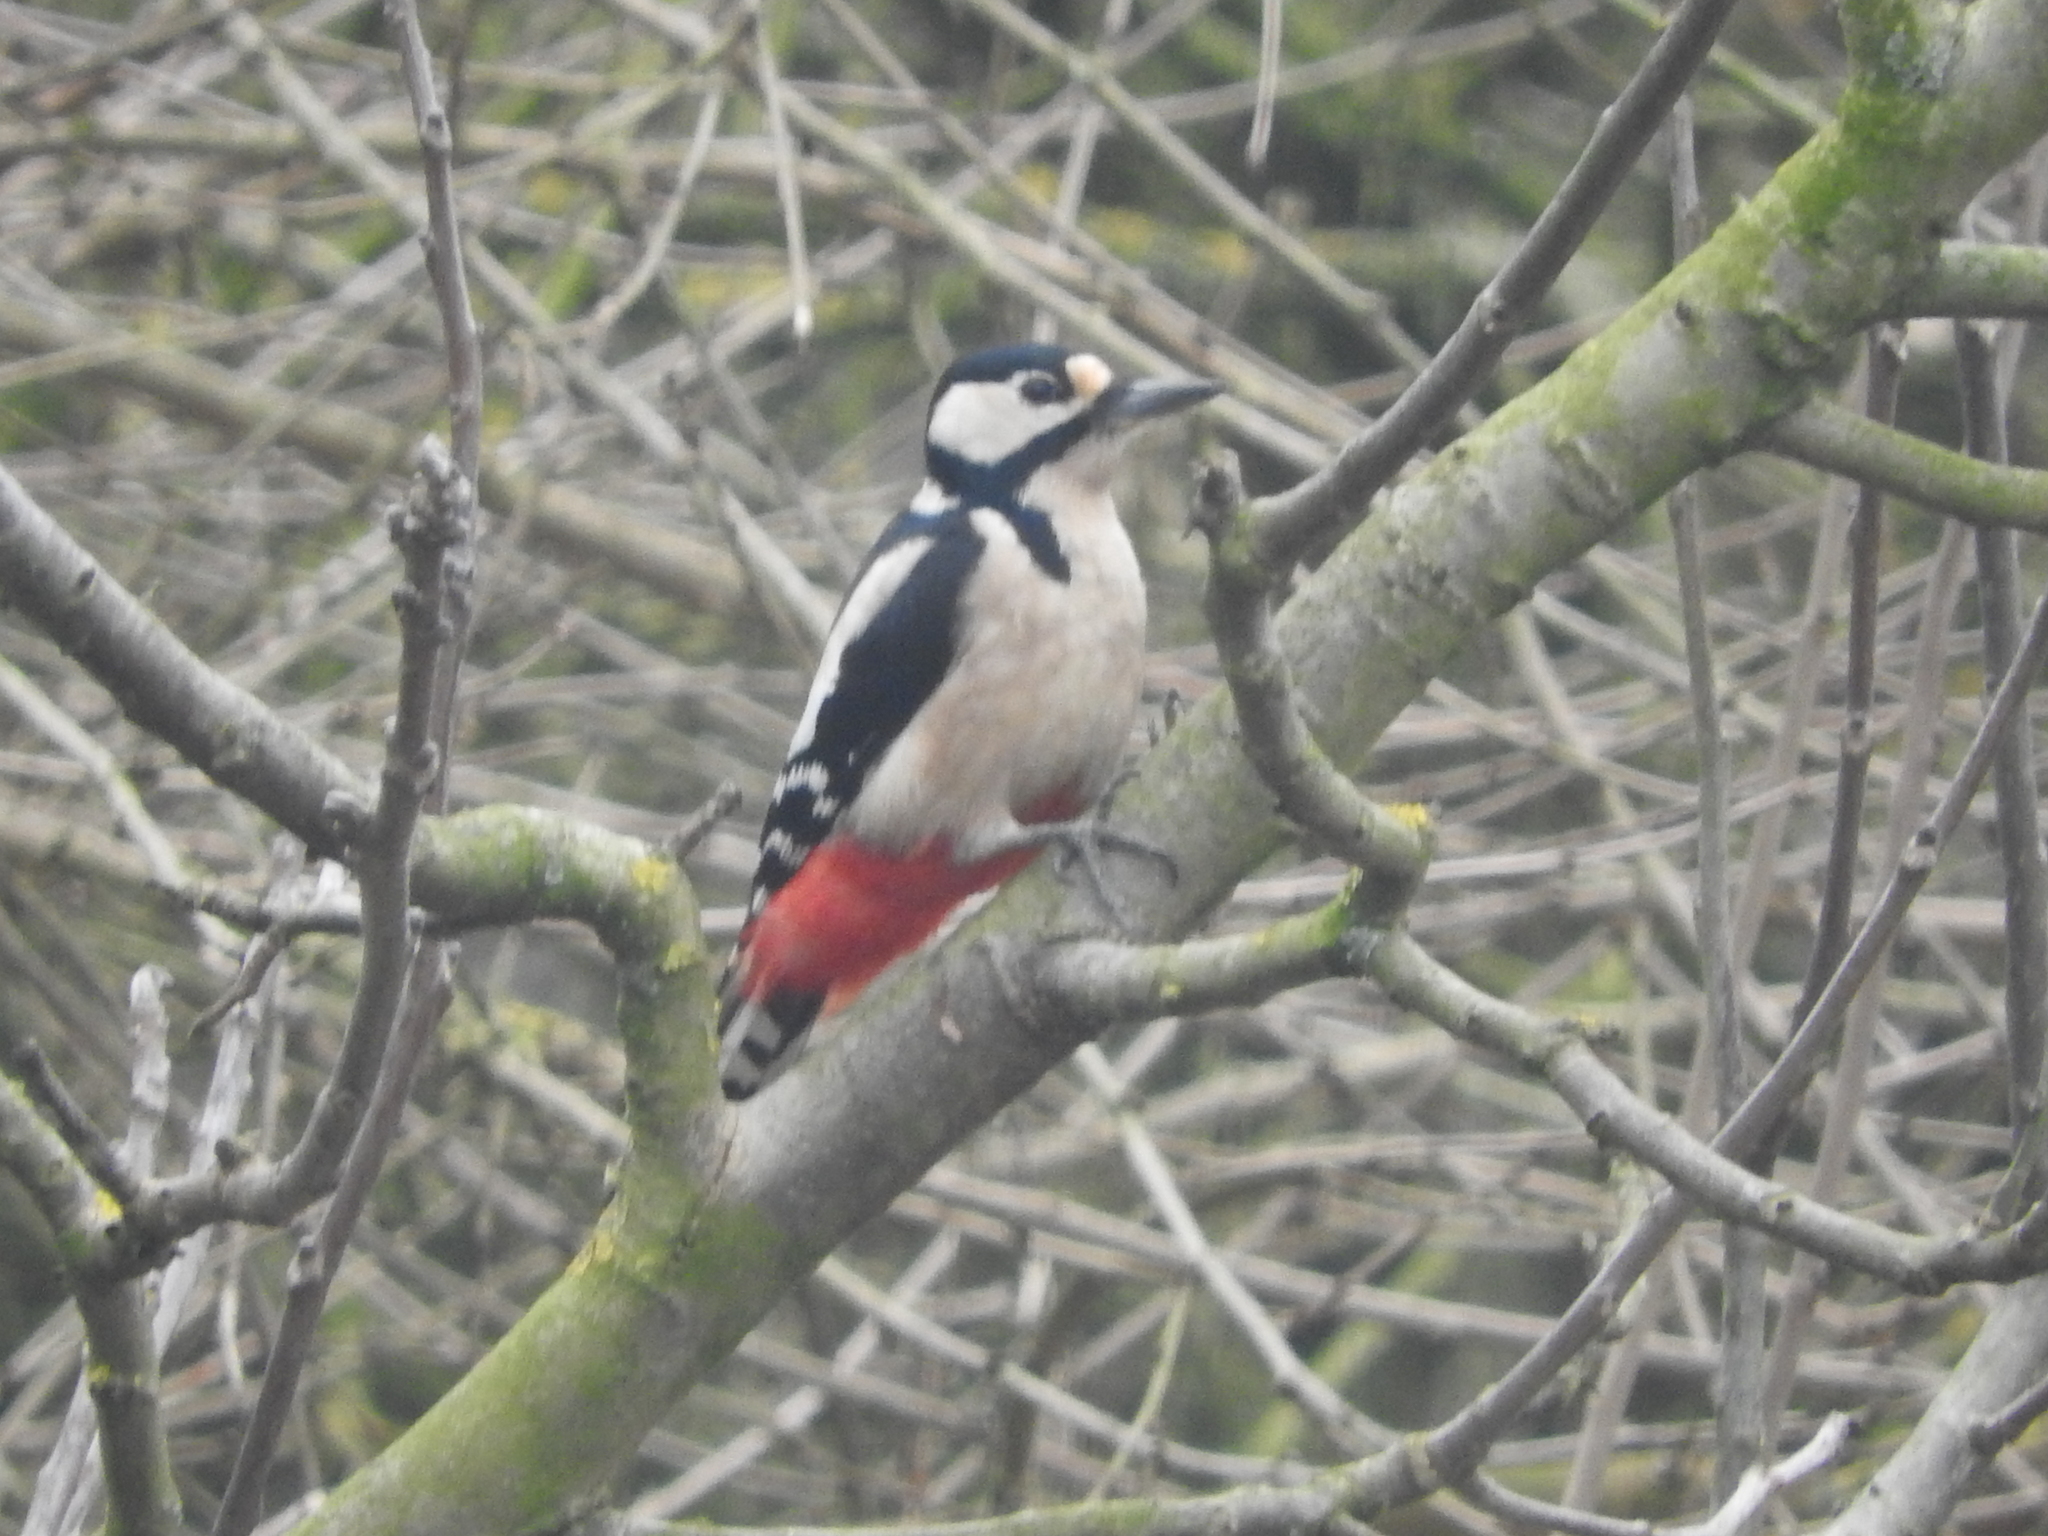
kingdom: Animalia
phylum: Chordata
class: Aves
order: Piciformes
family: Picidae
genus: Dendrocopos
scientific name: Dendrocopos major
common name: Great spotted woodpecker
